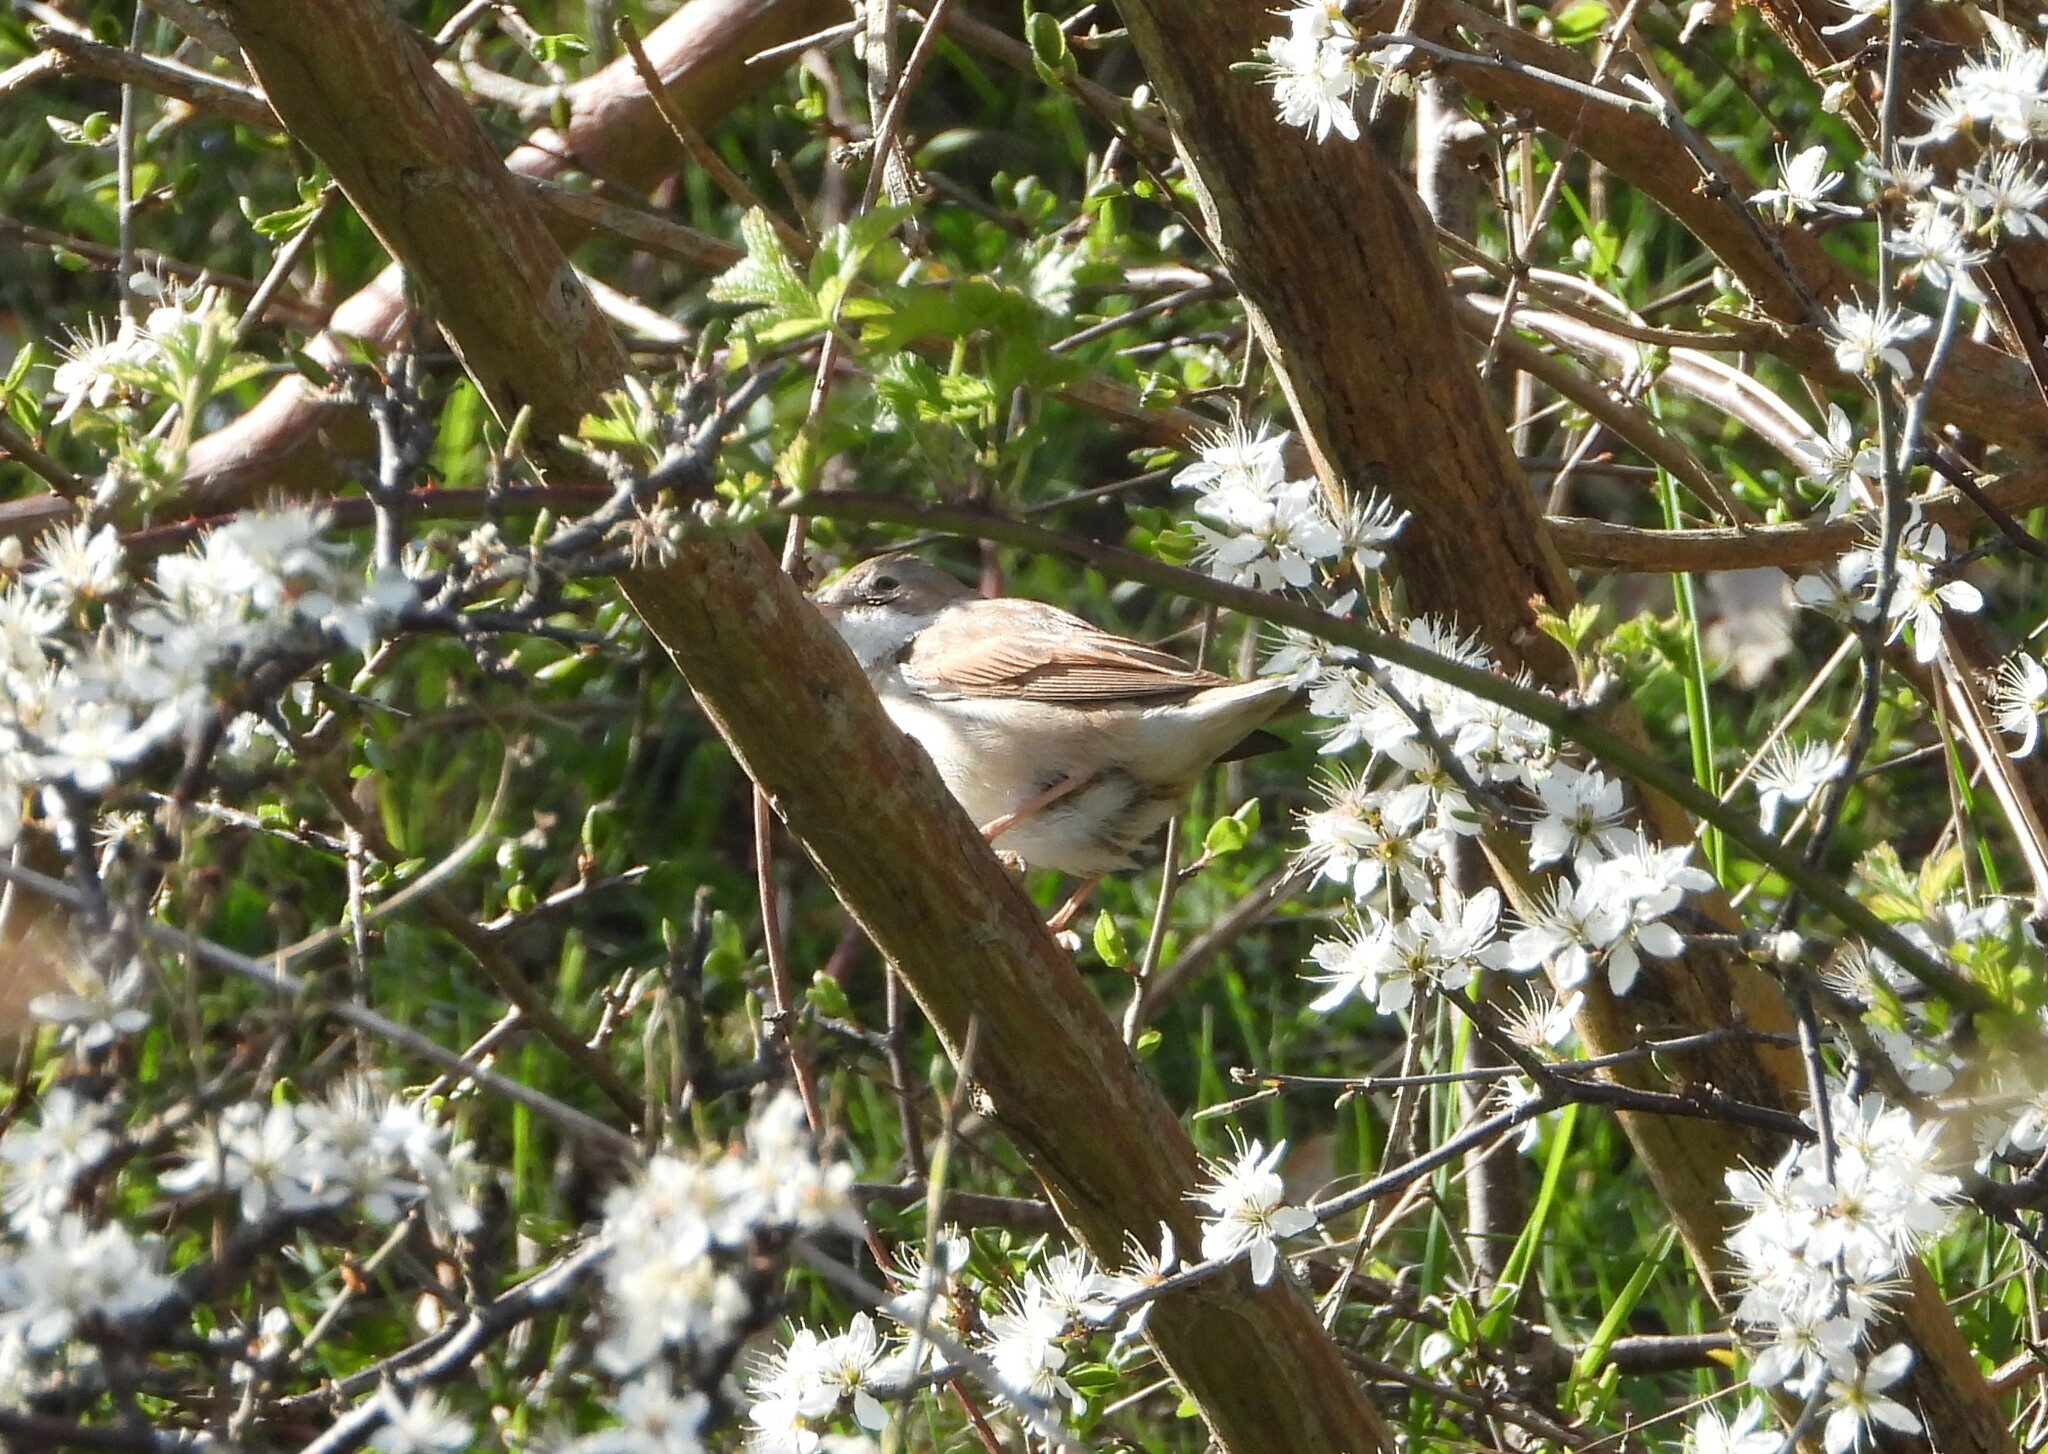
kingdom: Animalia
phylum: Chordata
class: Aves
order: Passeriformes
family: Sylviidae
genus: Sylvia
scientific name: Sylvia communis
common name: Common whitethroat
